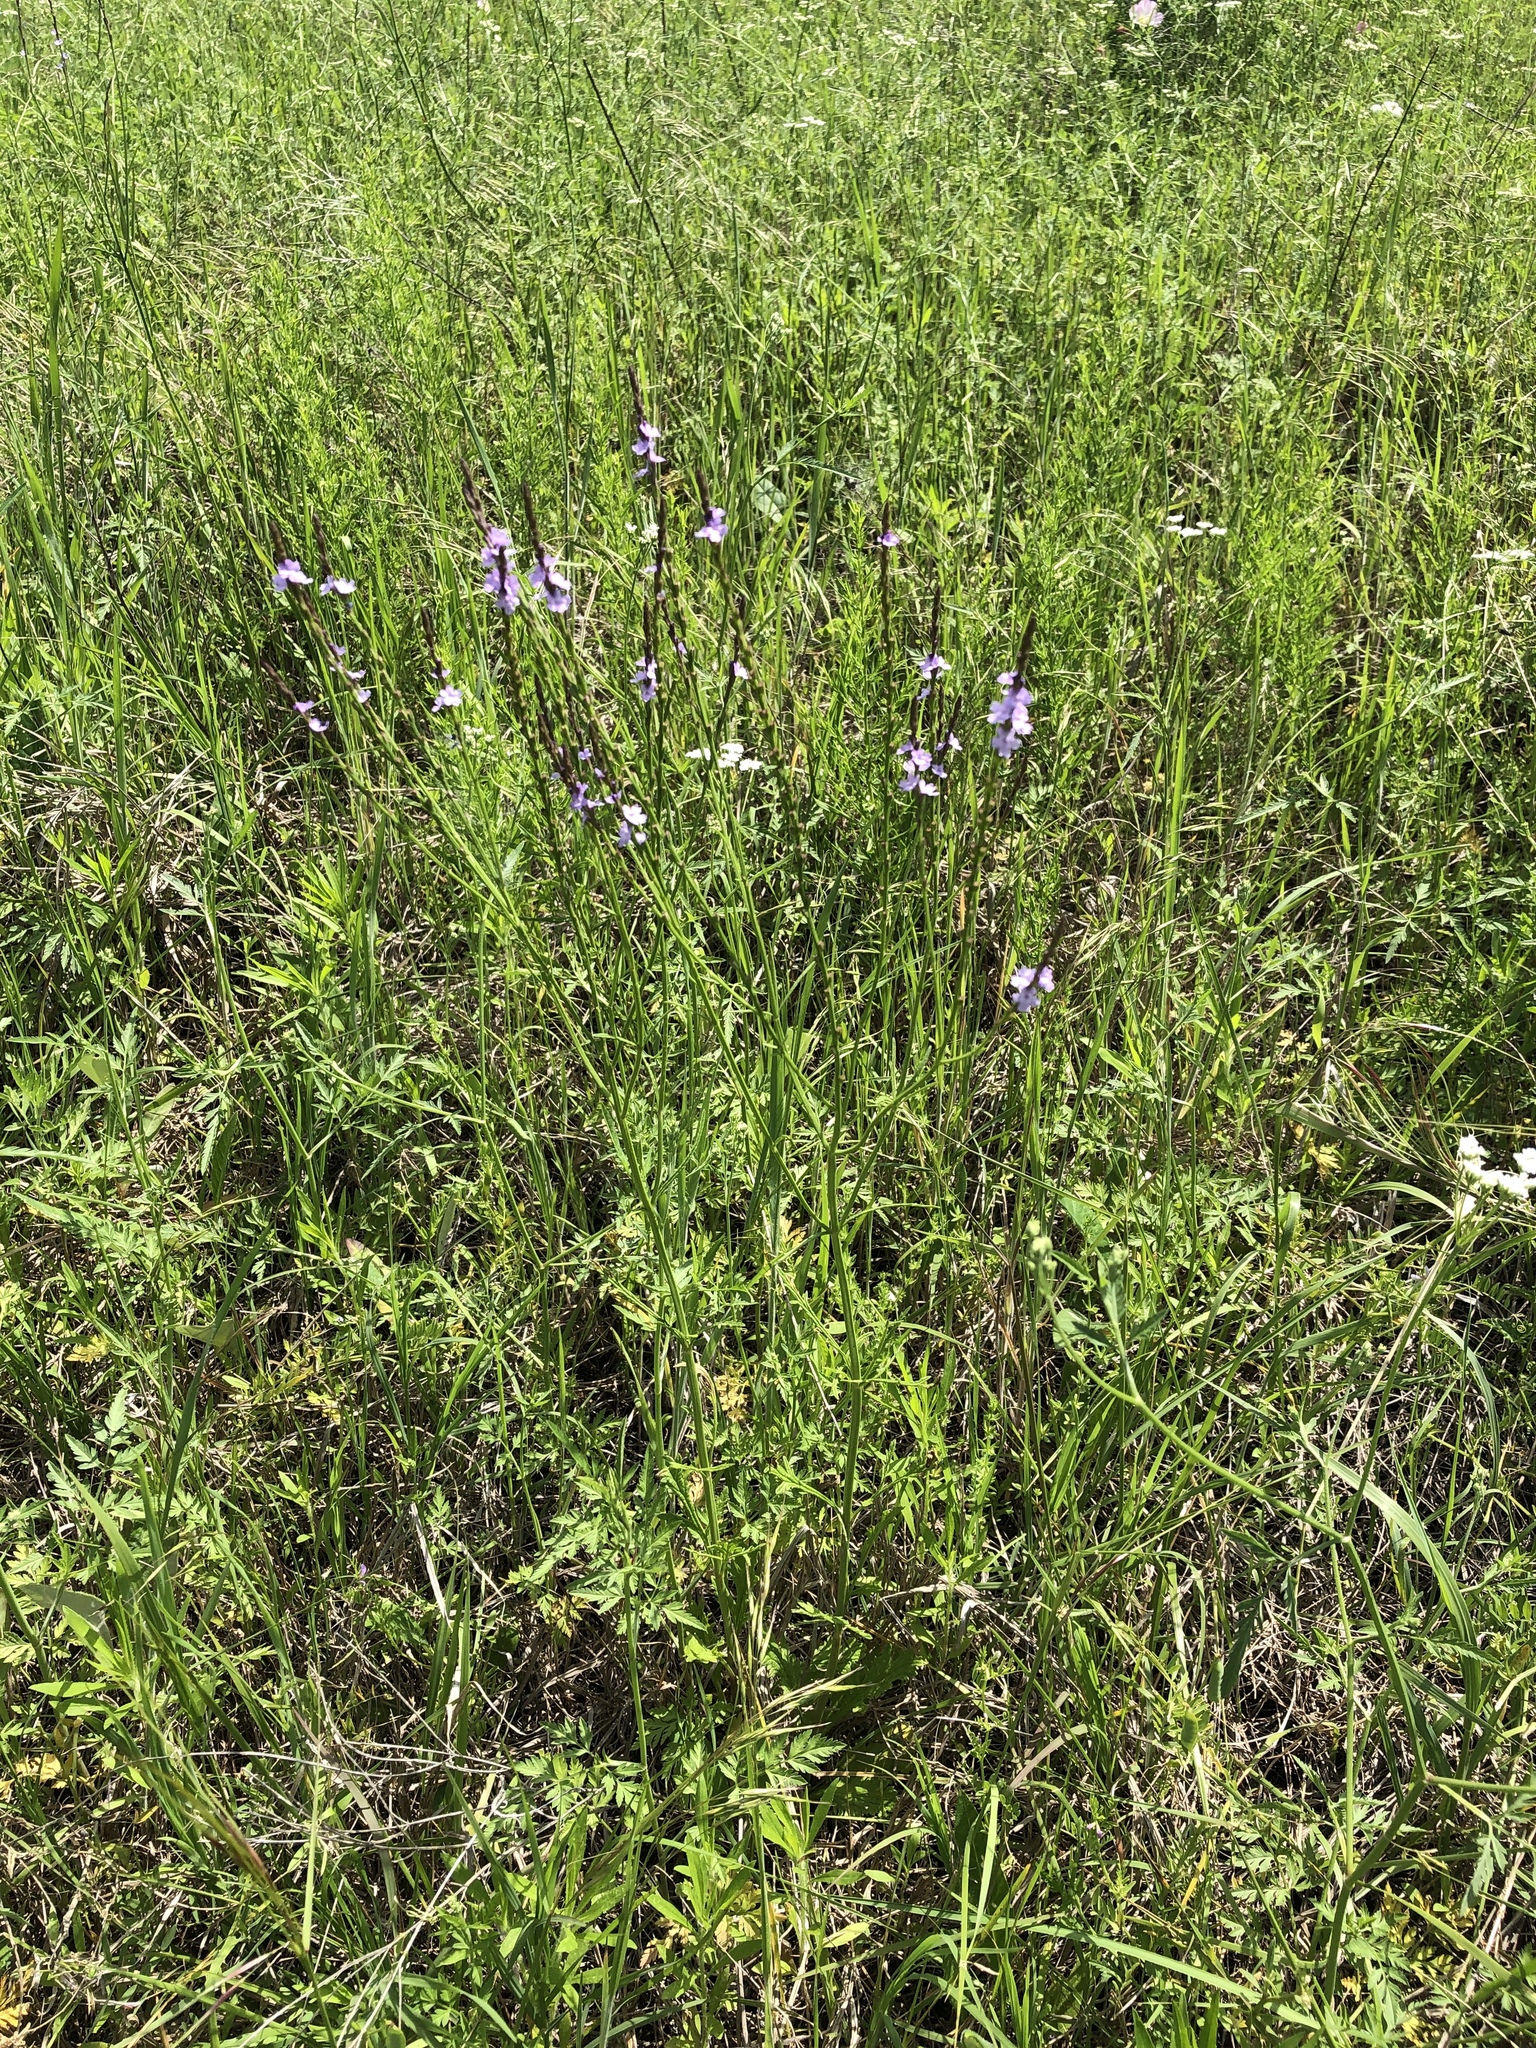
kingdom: Plantae
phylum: Tracheophyta
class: Magnoliopsida
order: Lamiales
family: Verbenaceae
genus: Verbena
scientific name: Verbena halei
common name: Texas vervain
